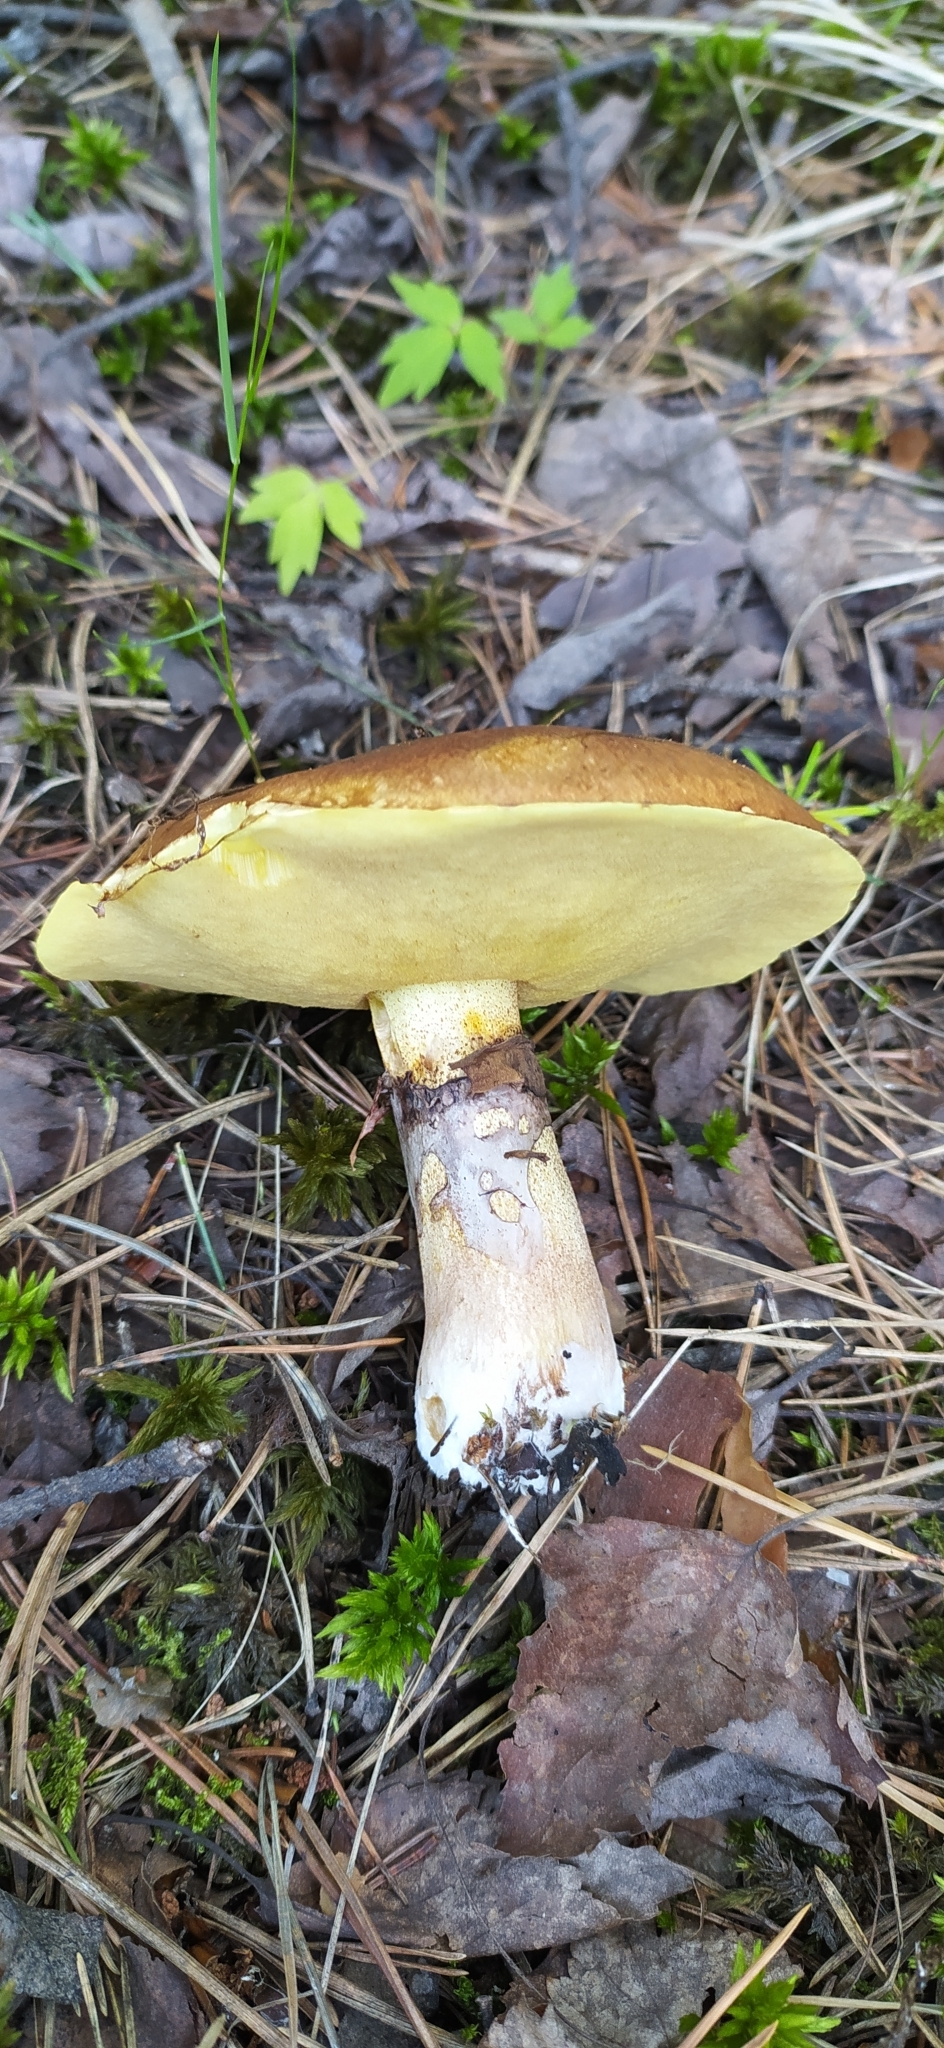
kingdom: Fungi
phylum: Basidiomycota
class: Agaricomycetes
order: Boletales
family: Suillaceae
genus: Suillus
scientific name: Suillus luteus
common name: Slippery jack
